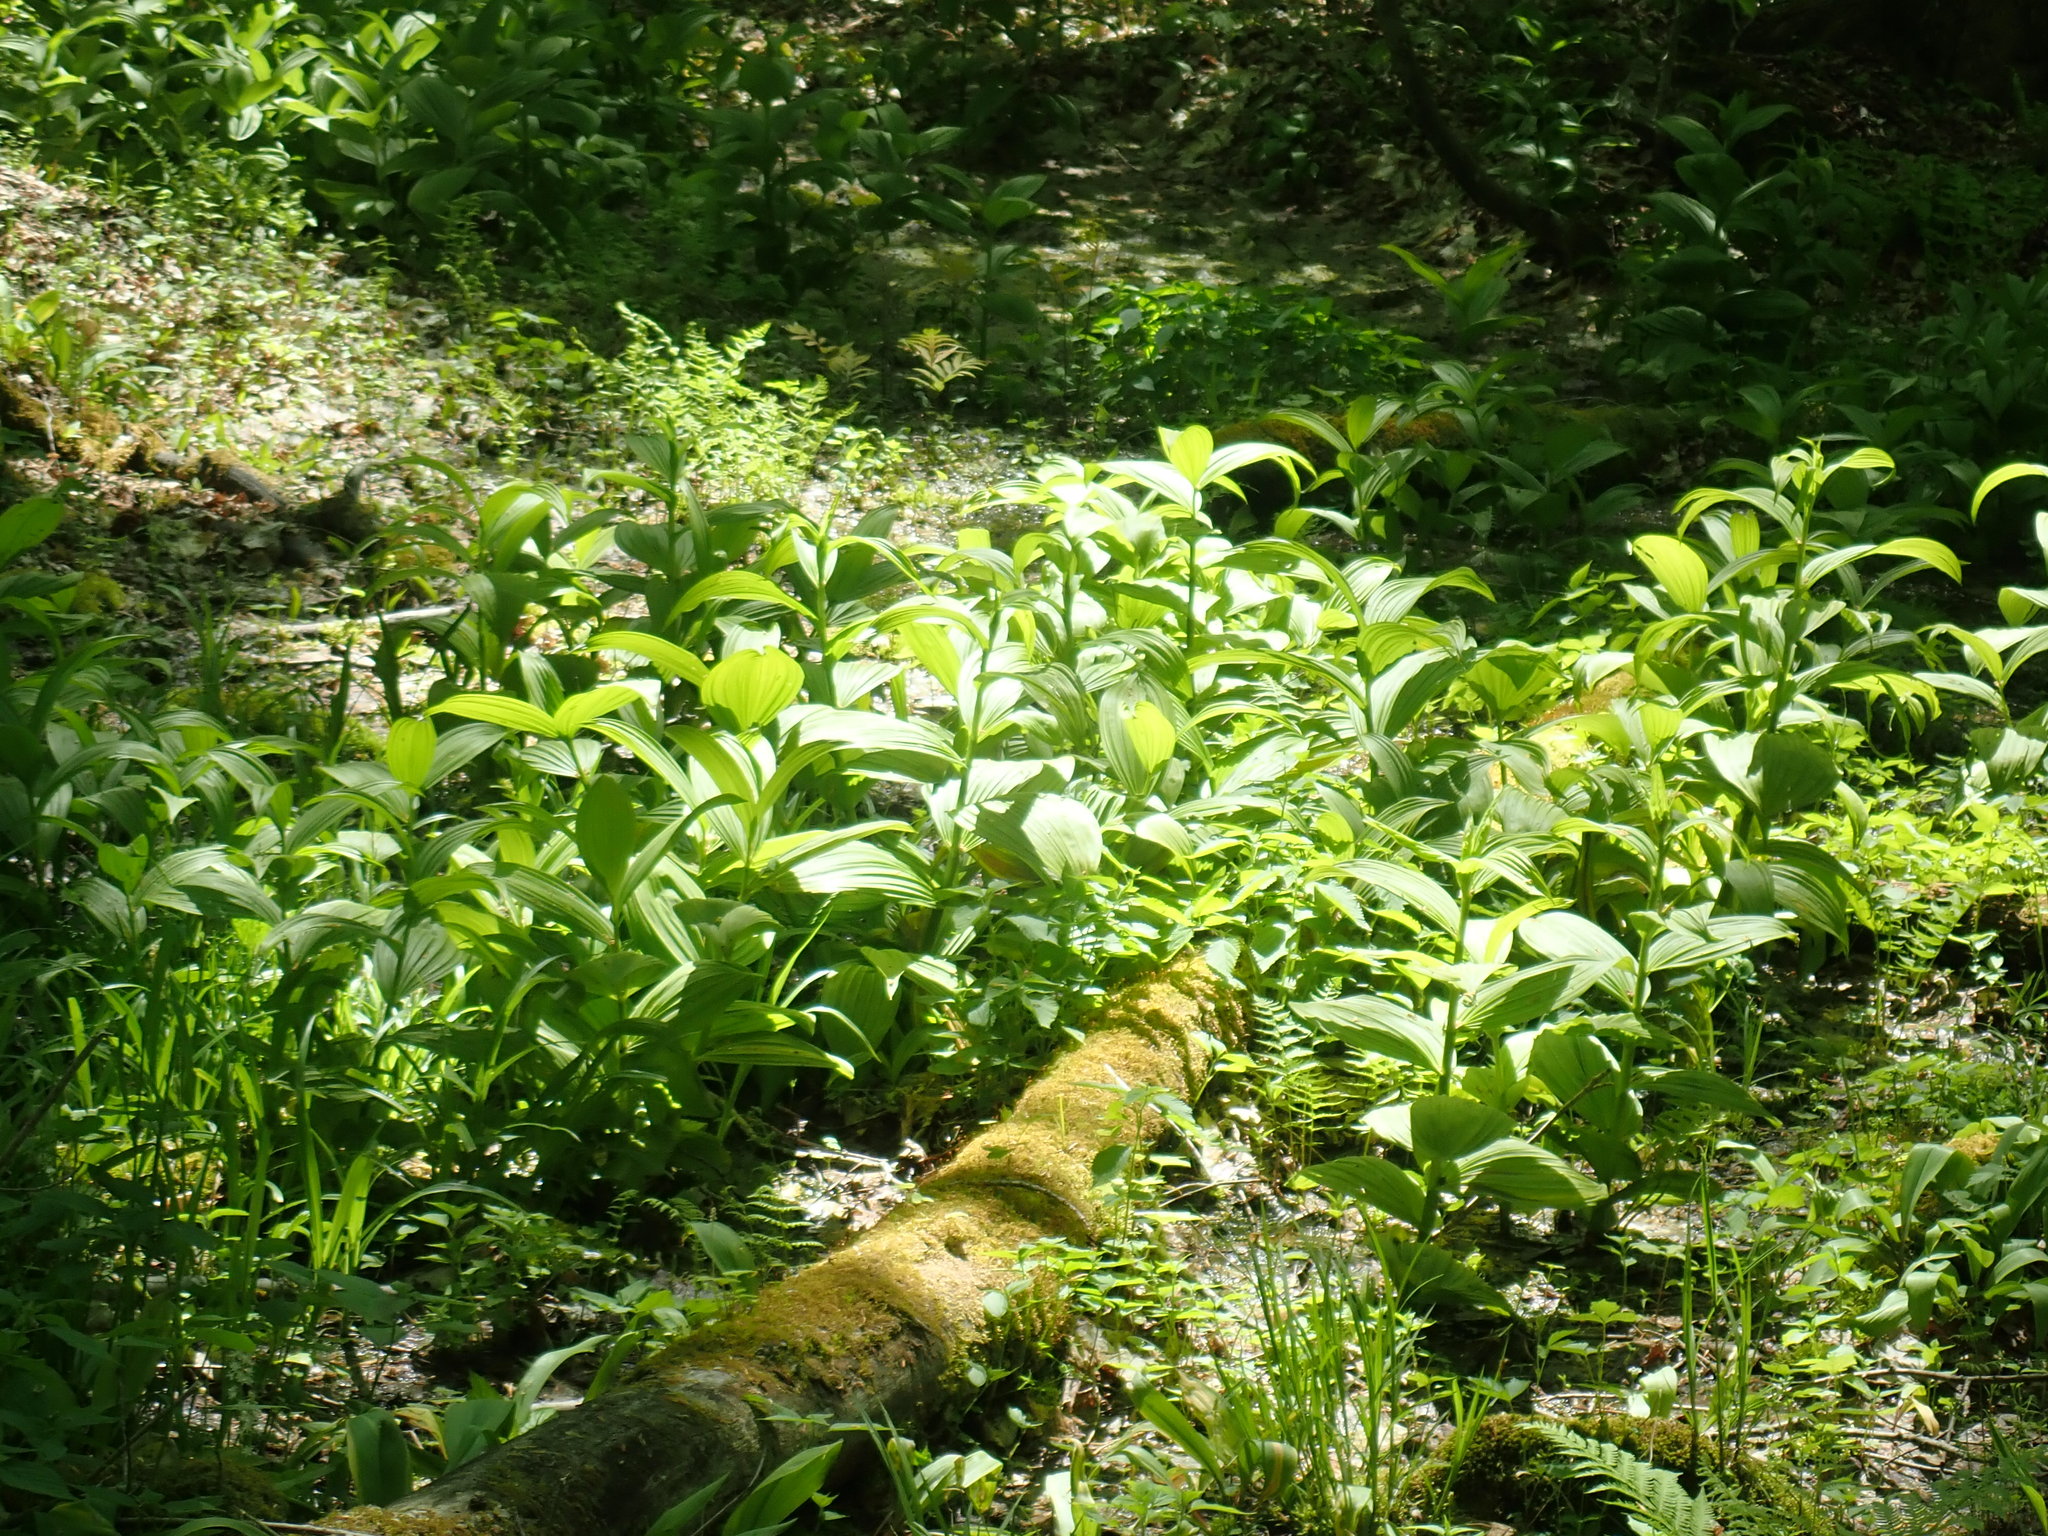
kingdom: Plantae
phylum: Tracheophyta
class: Liliopsida
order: Liliales
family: Melanthiaceae
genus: Veratrum
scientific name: Veratrum viride
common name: American false hellebore
